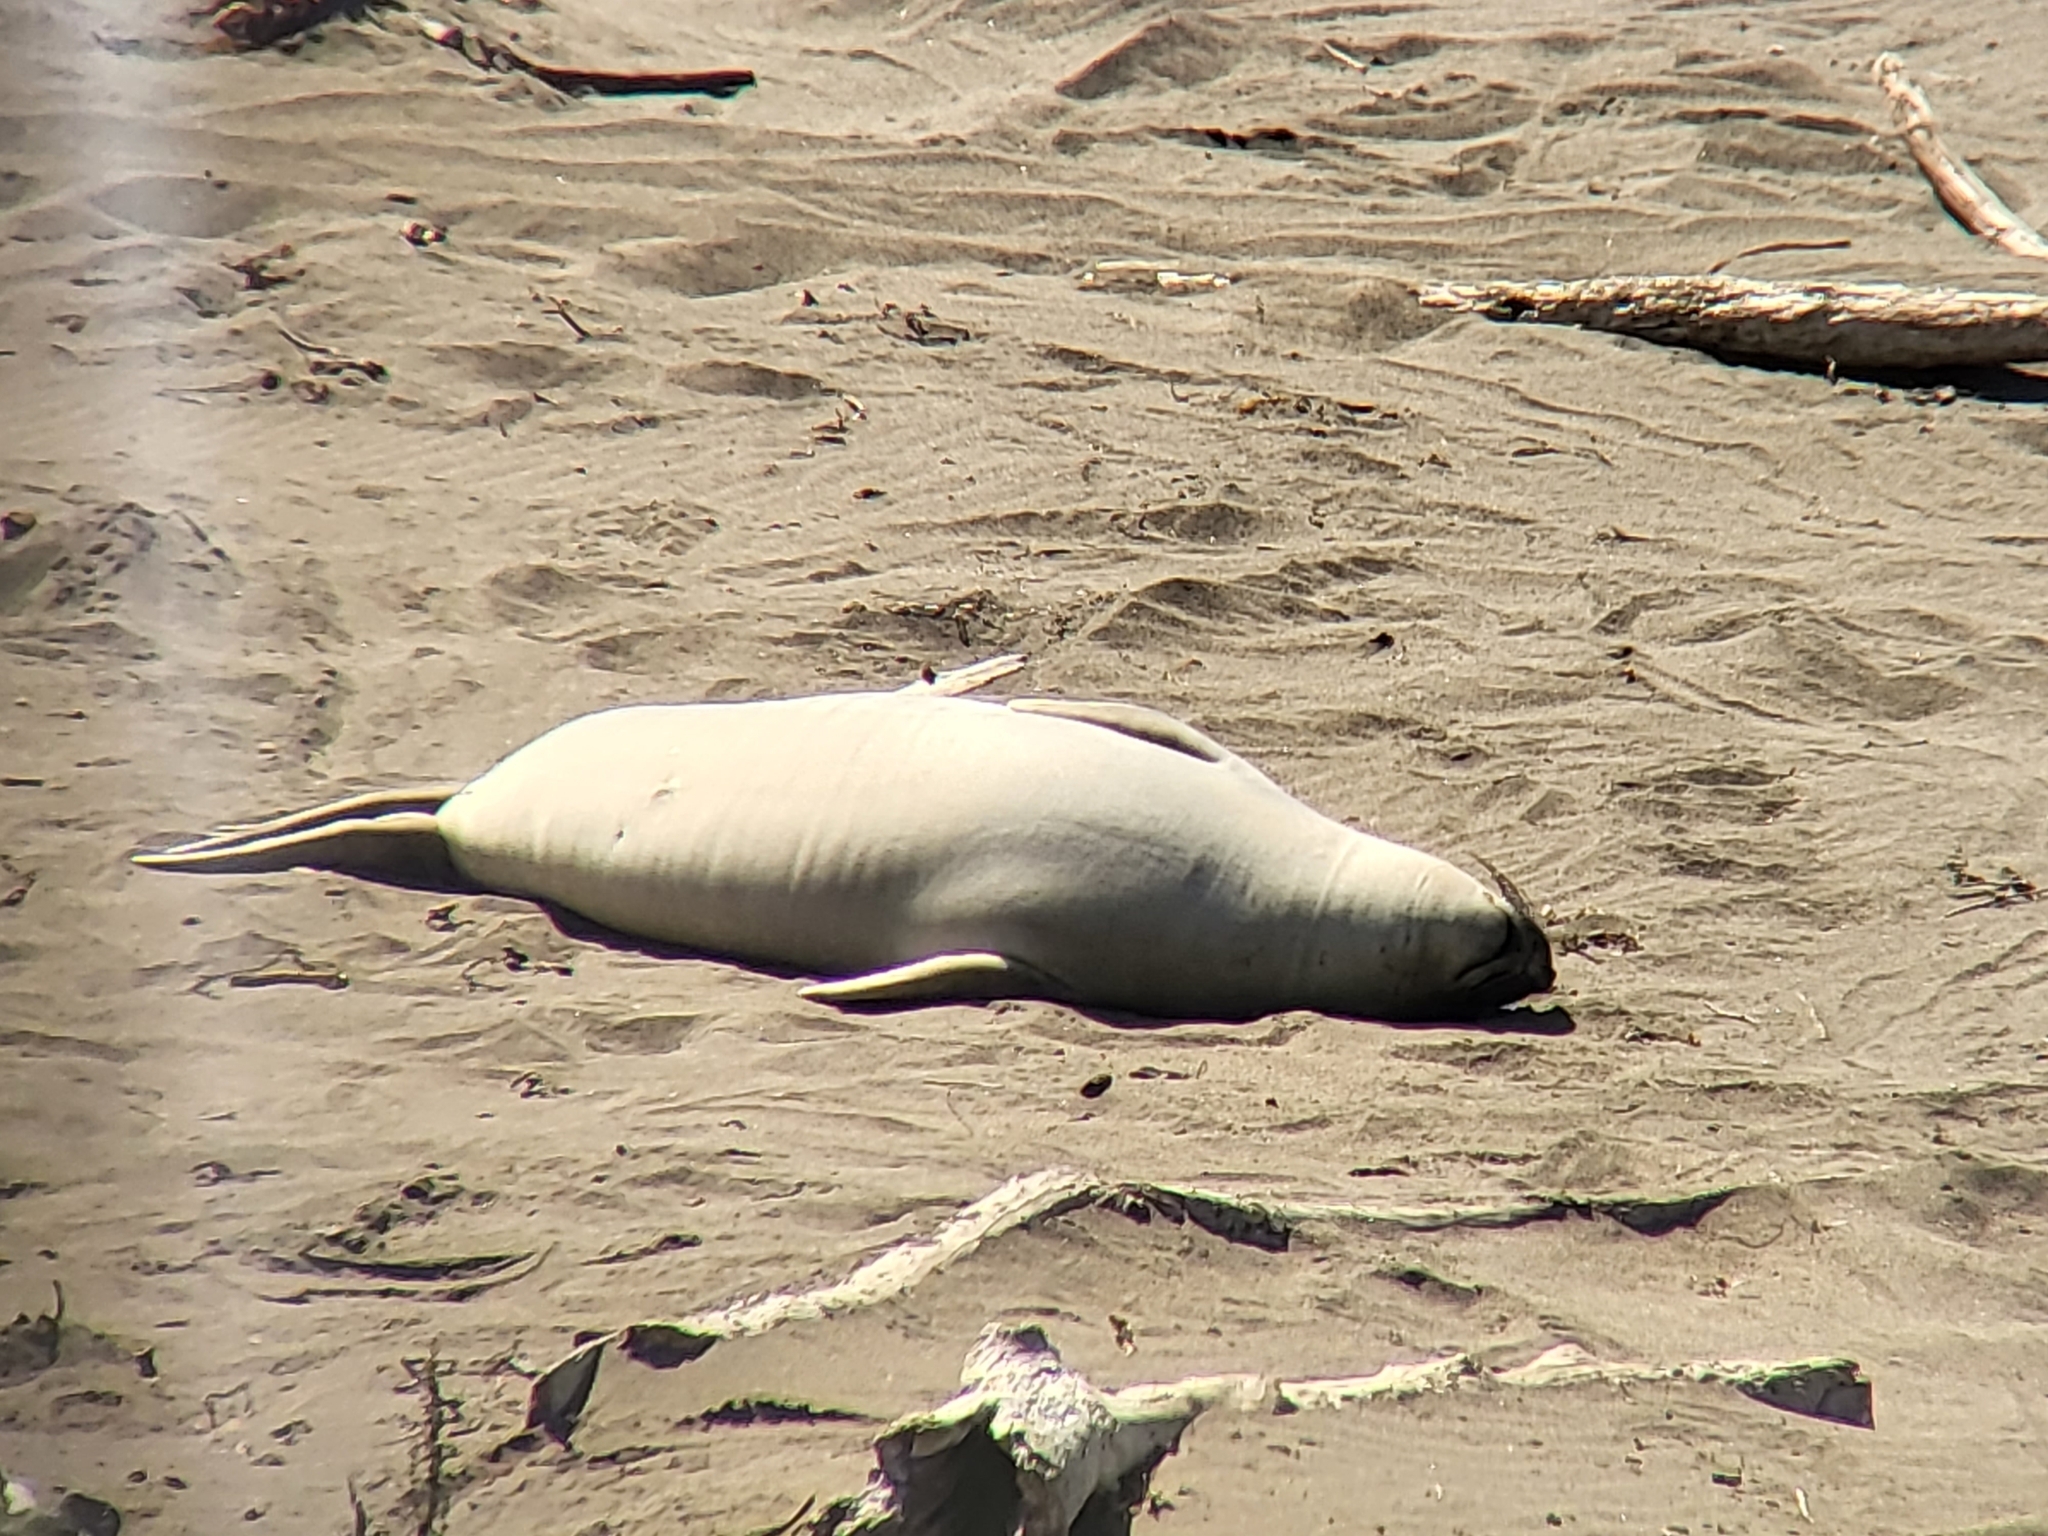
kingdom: Animalia
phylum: Chordata
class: Mammalia
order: Carnivora
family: Phocidae
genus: Mirounga
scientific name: Mirounga angustirostris
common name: Northern elephant seal
